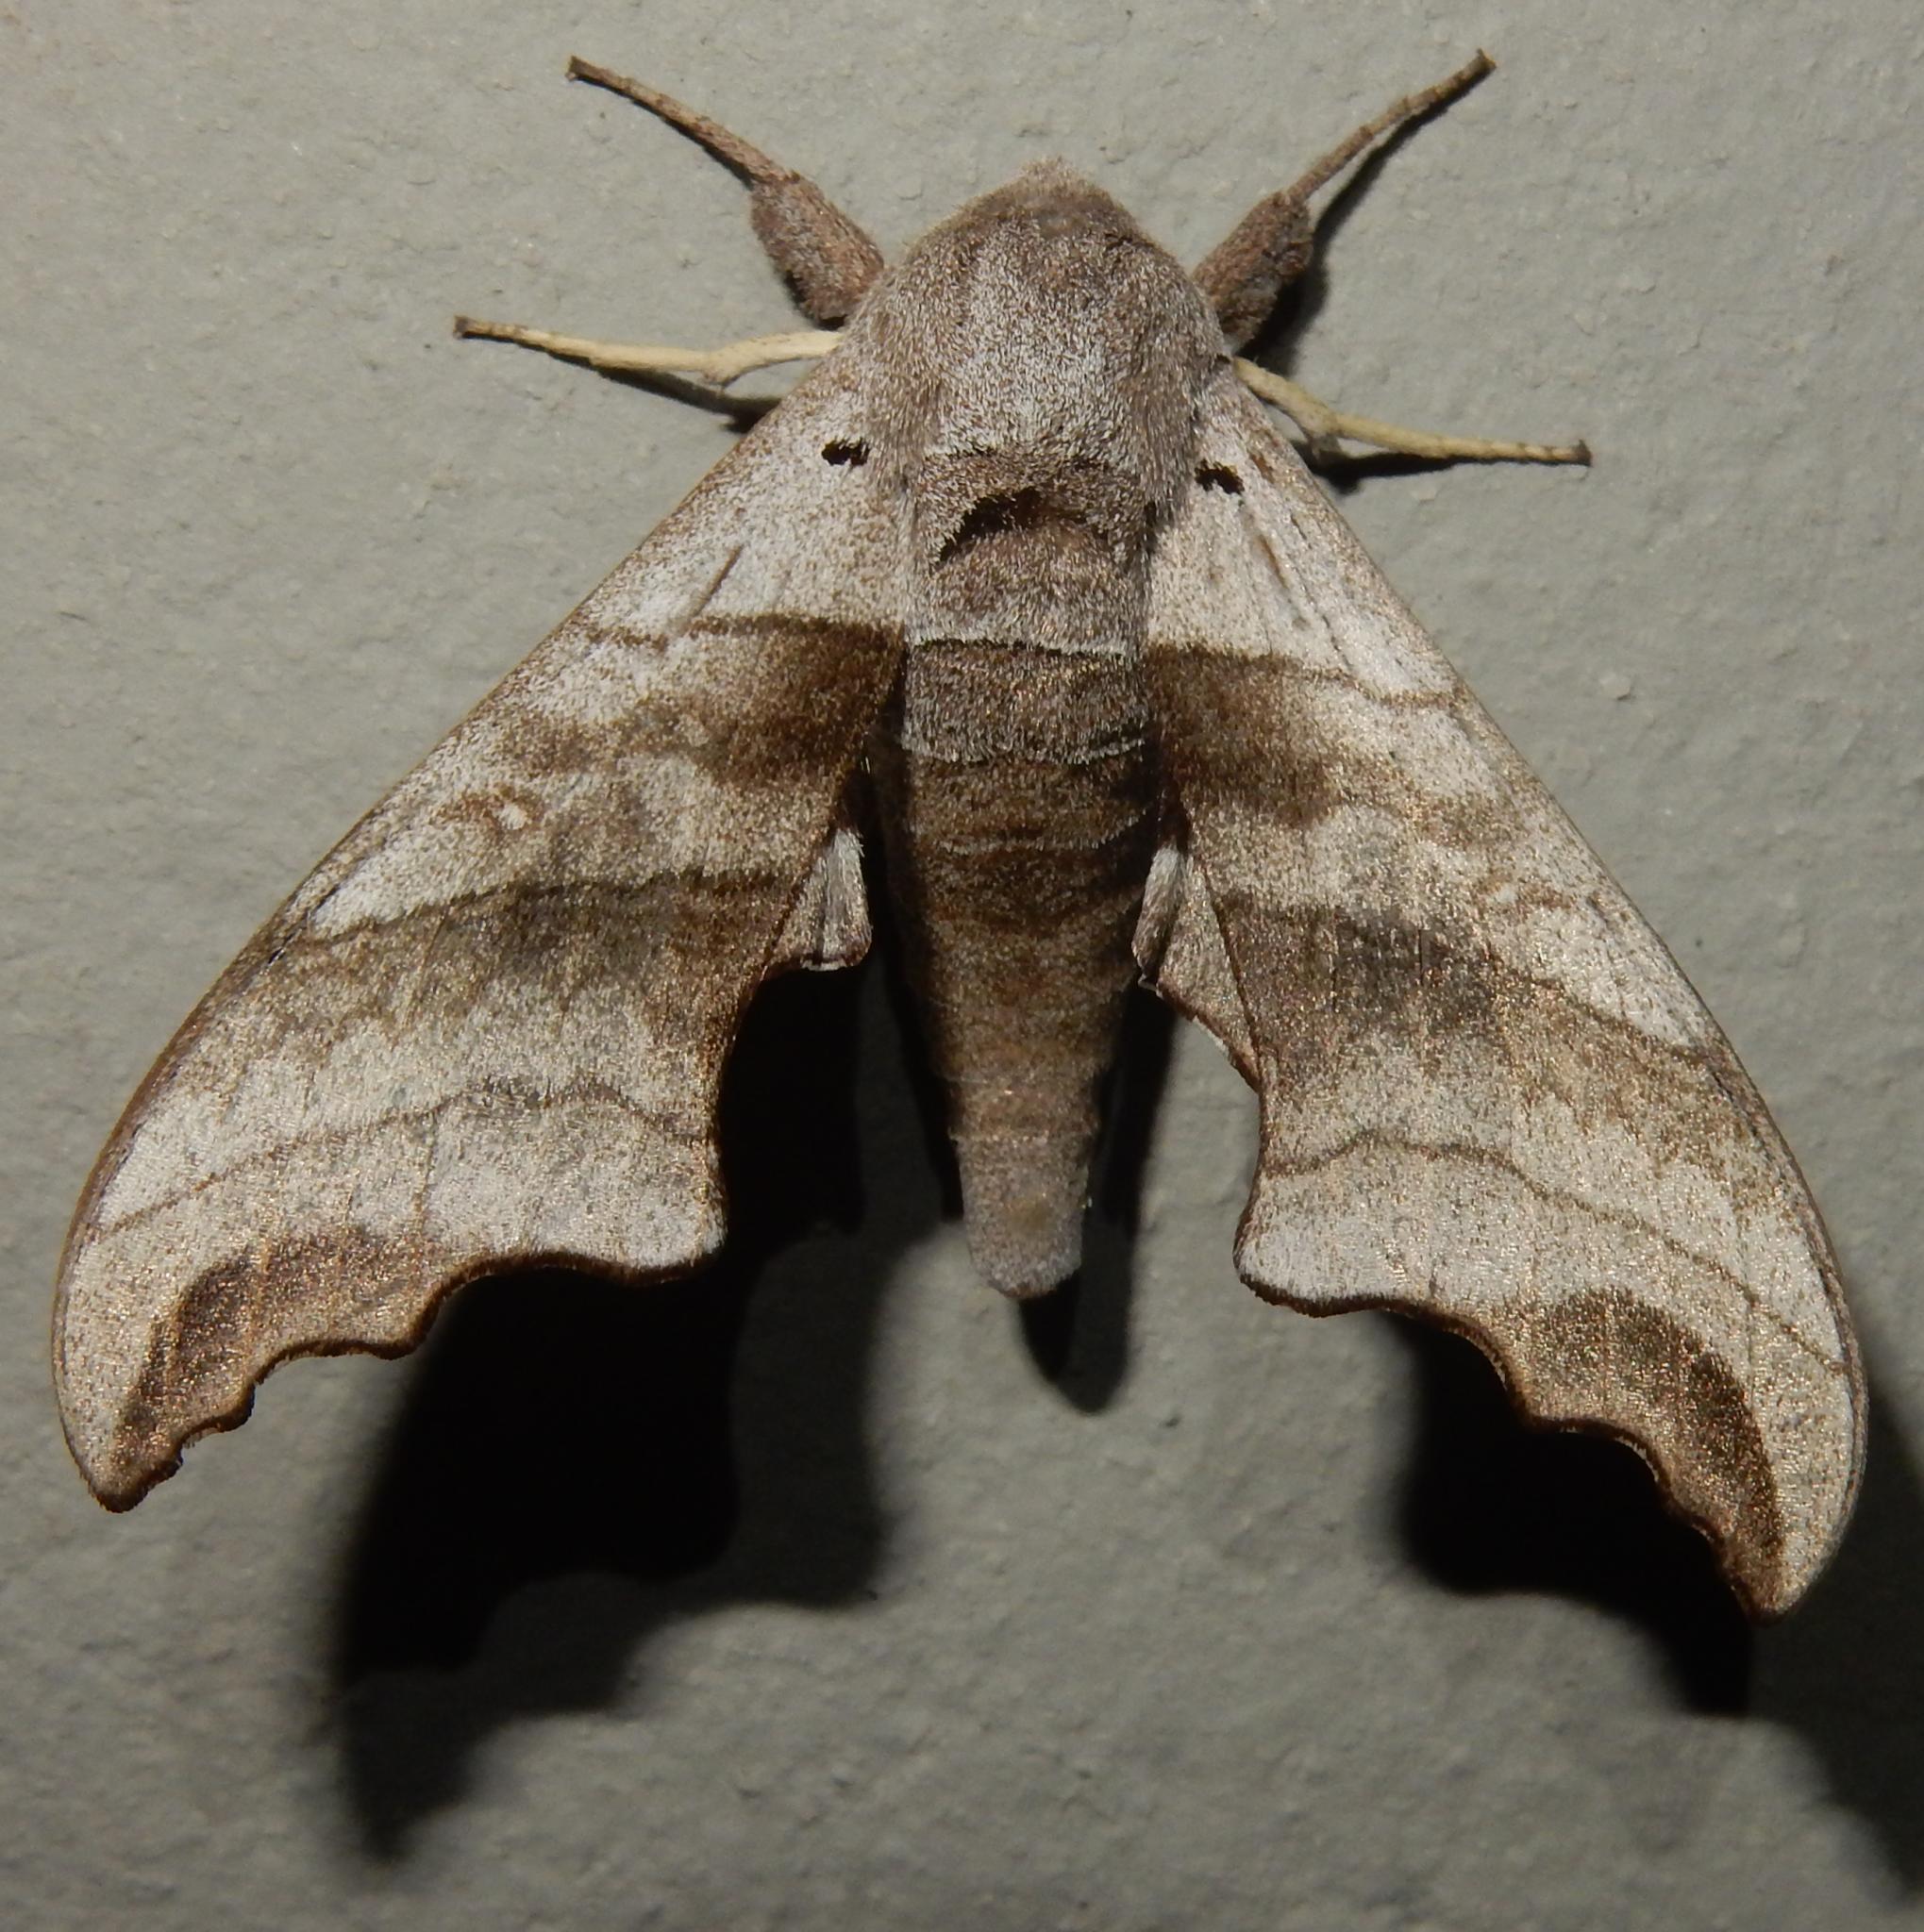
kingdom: Animalia
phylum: Arthropoda
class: Insecta
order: Lepidoptera
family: Sphingidae
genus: Polyptychoides
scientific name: Polyptychoides grayii
